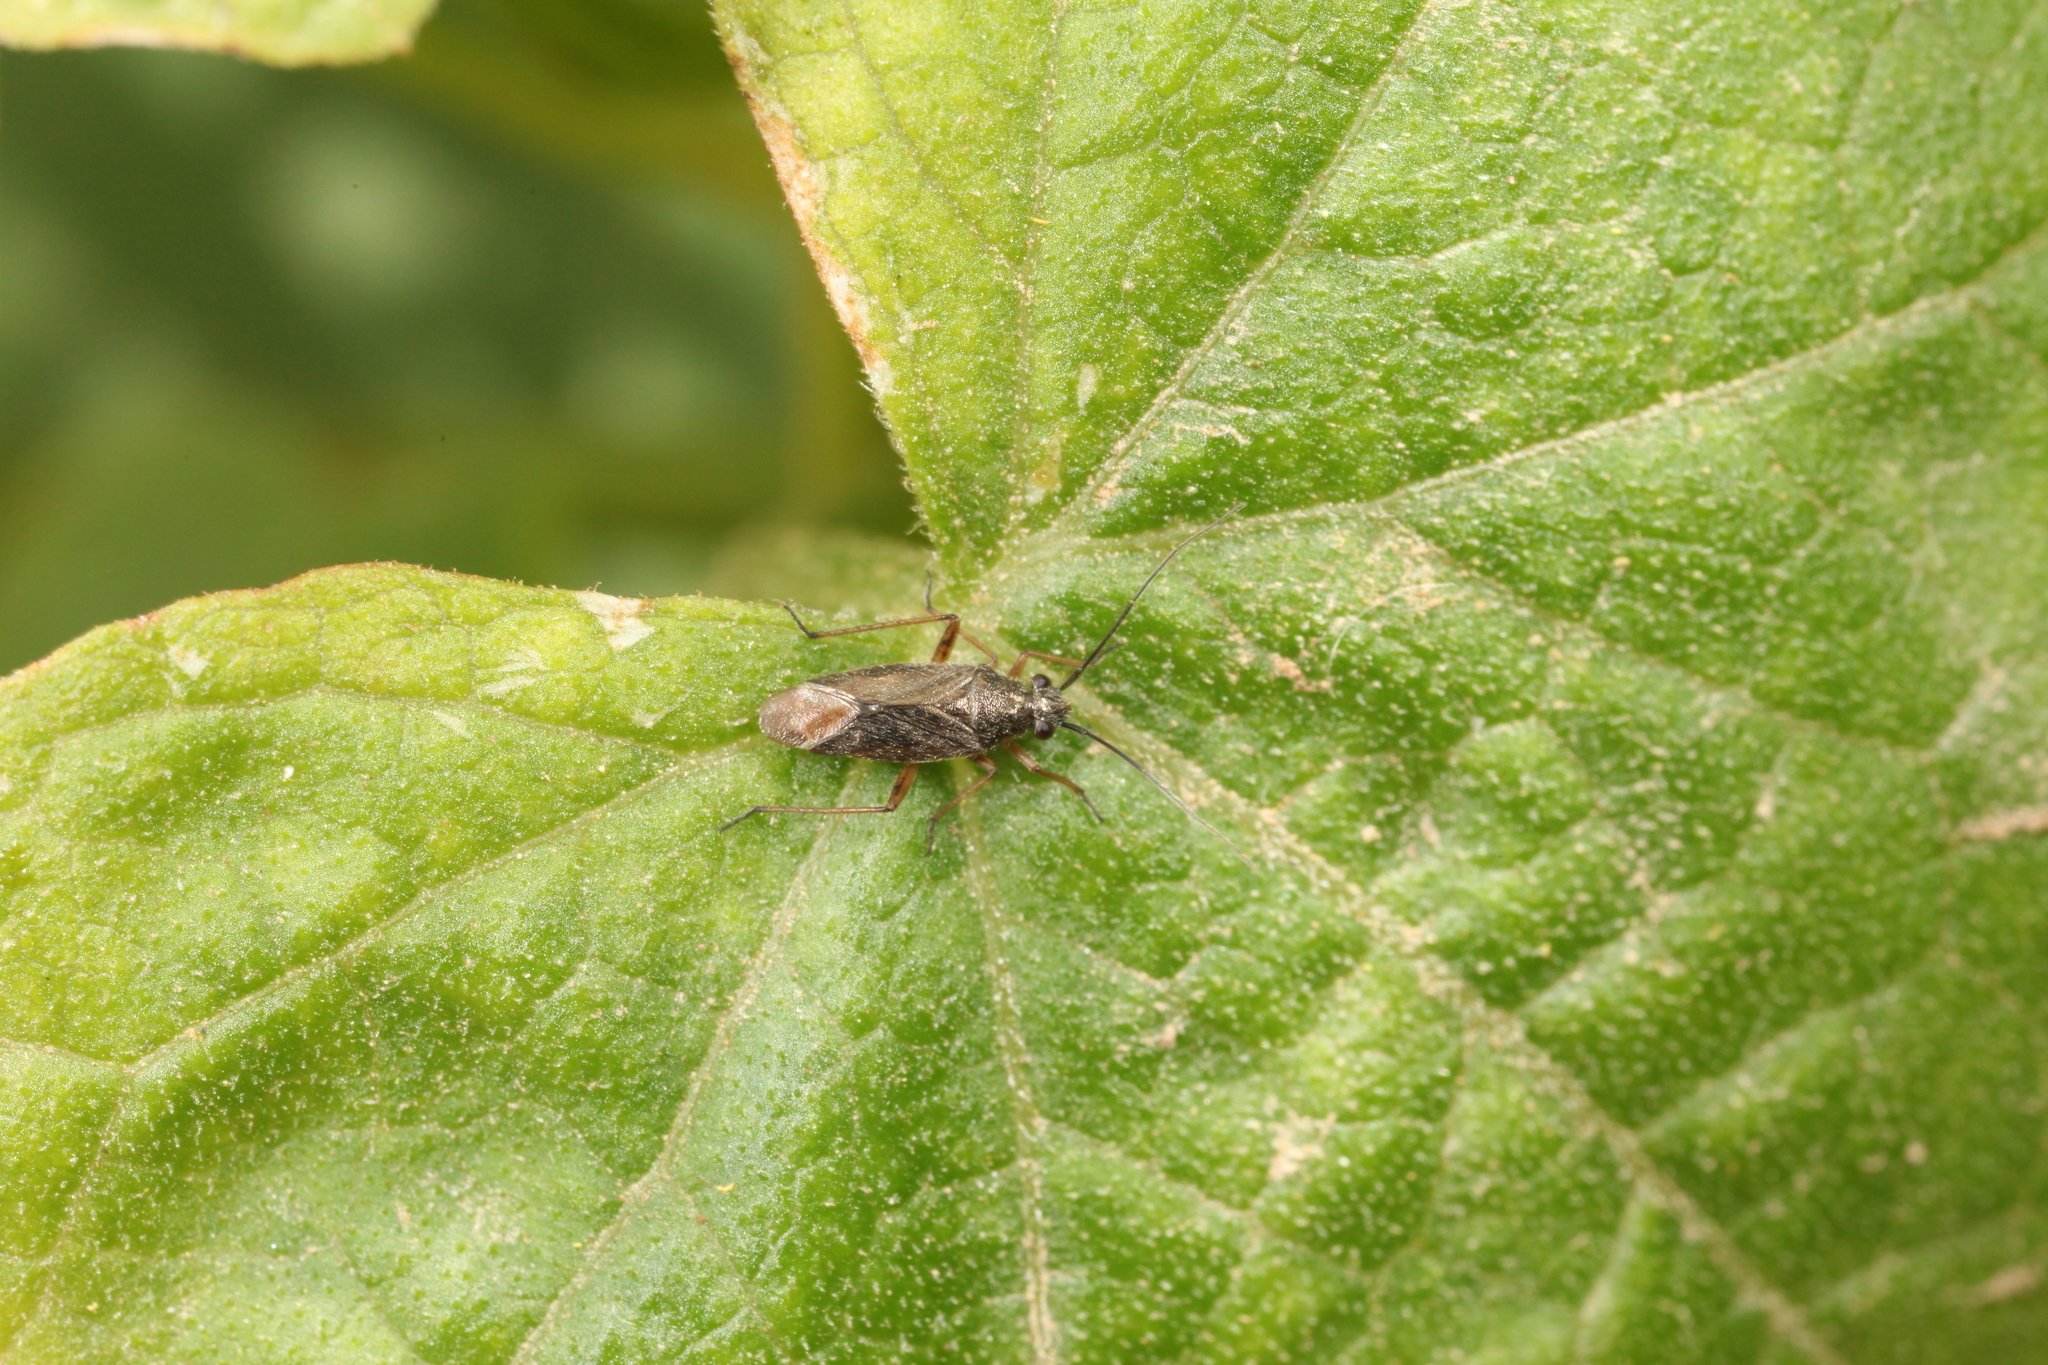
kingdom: Animalia
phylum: Arthropoda
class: Insecta
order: Hemiptera
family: Miridae
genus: Irbisia
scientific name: Irbisia californica
